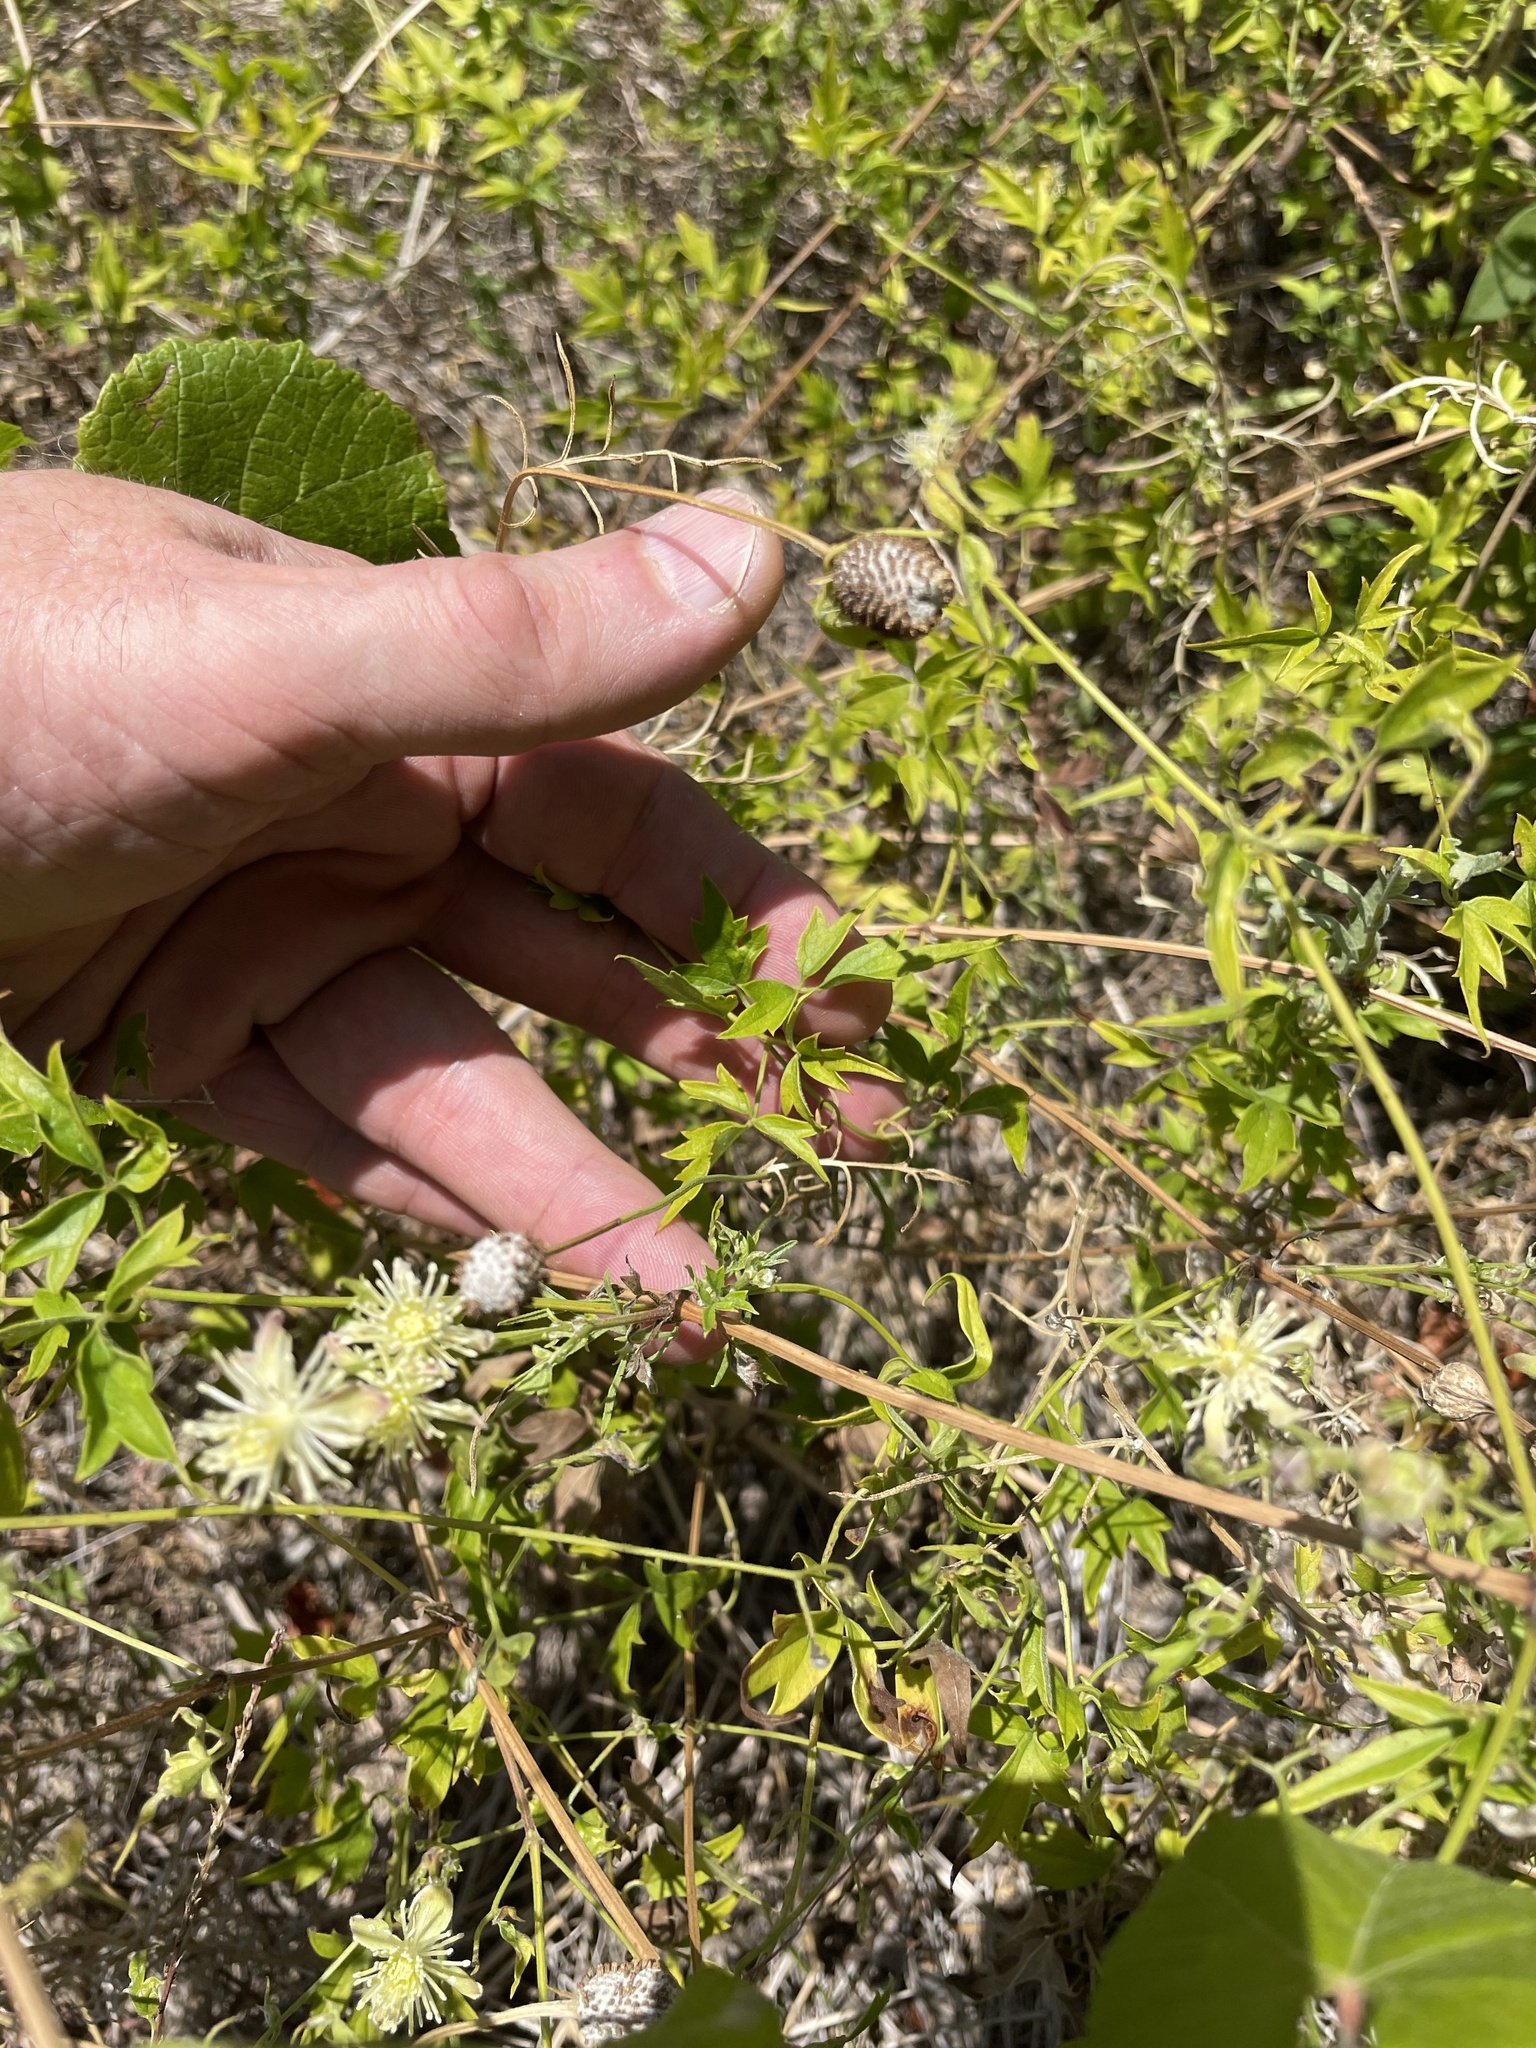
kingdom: Plantae
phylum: Tracheophyta
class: Magnoliopsida
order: Ranunculales
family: Ranunculaceae
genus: Clematis
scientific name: Clematis drummondii
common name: Texas virgin's bower
